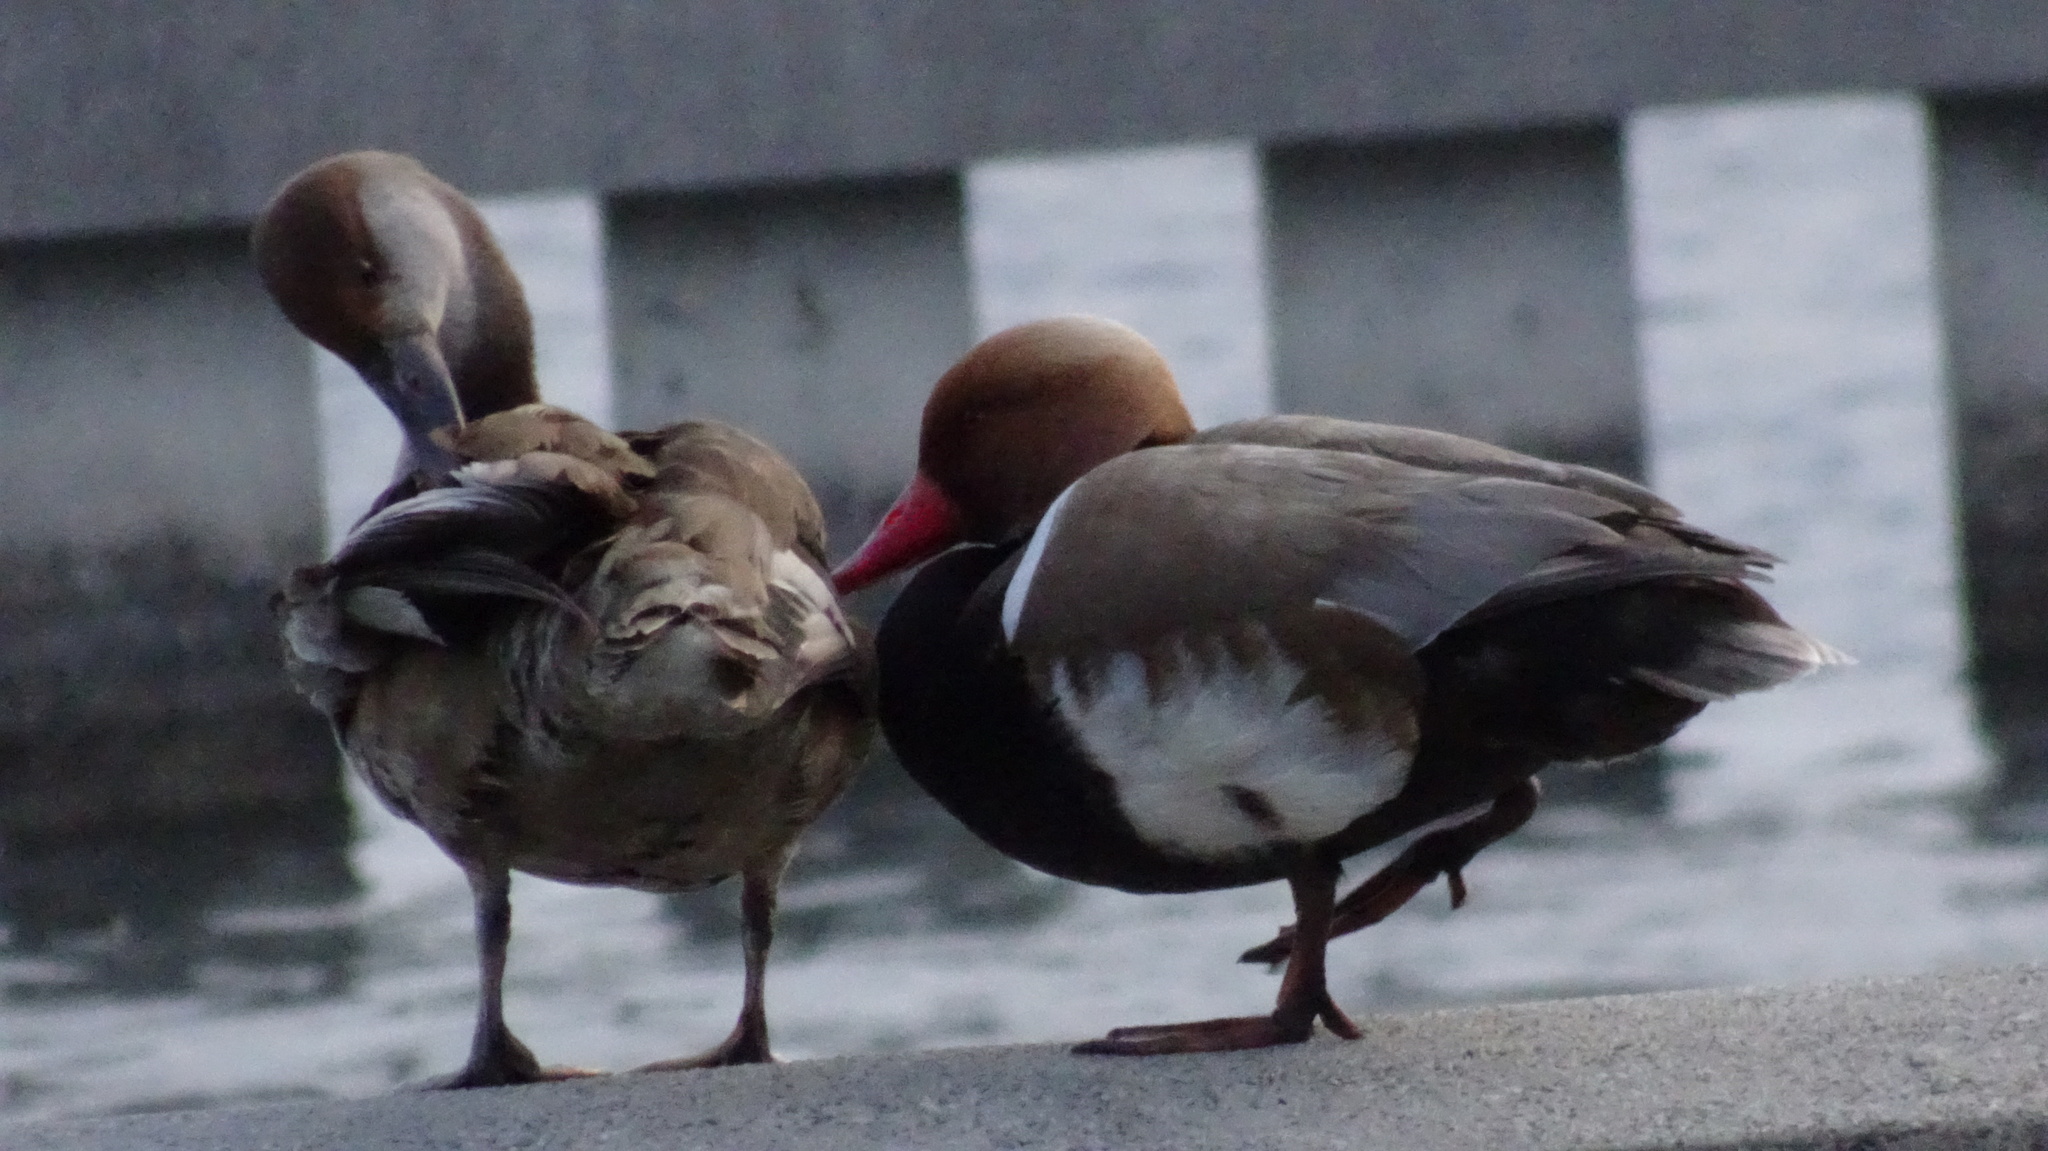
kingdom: Animalia
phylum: Chordata
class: Aves
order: Anseriformes
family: Anatidae
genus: Netta
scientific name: Netta rufina
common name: Red-crested pochard
